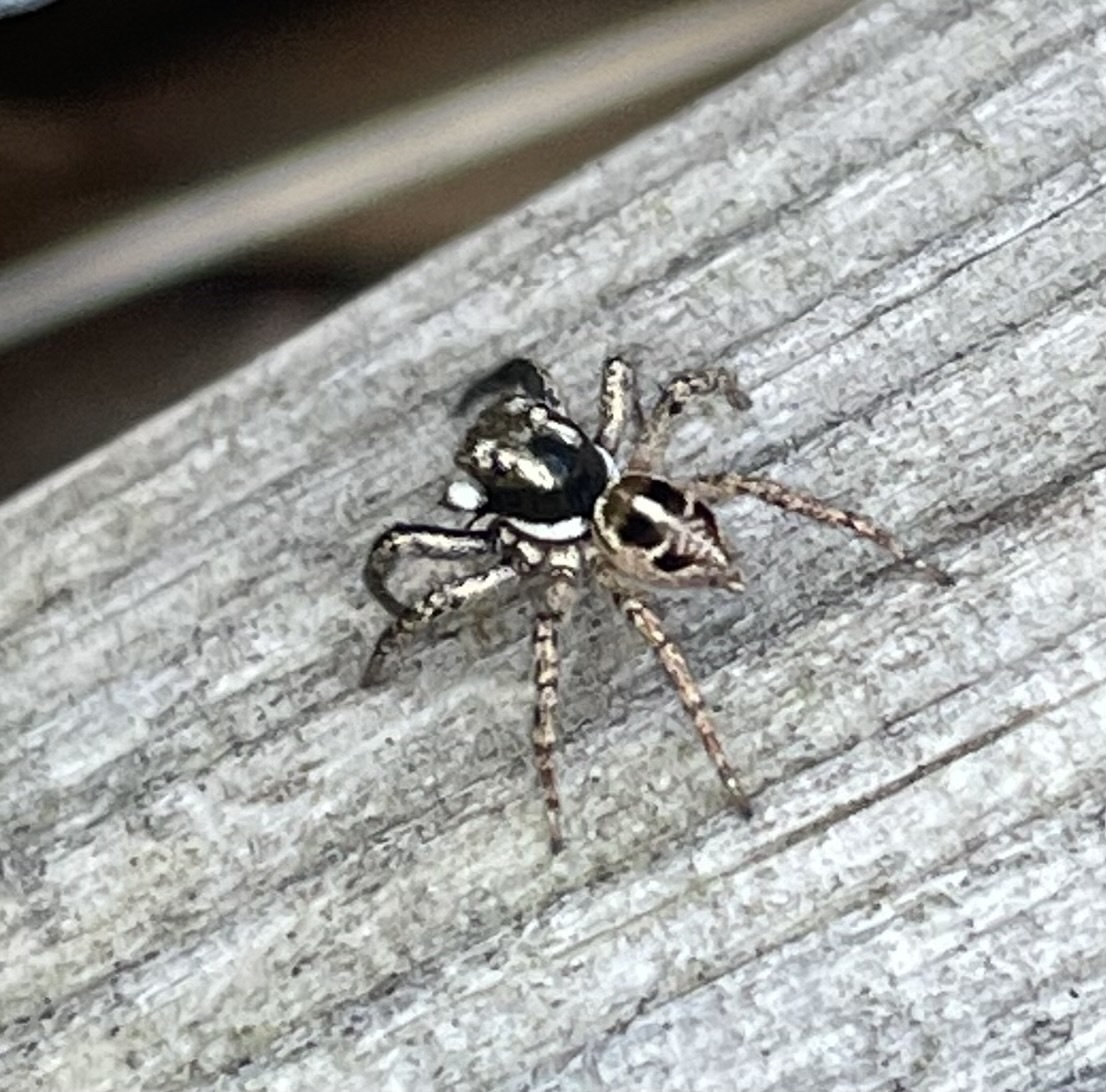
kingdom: Animalia
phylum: Arthropoda
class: Arachnida
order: Araneae
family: Salticidae
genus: Anasaitis
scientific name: Anasaitis canosa
